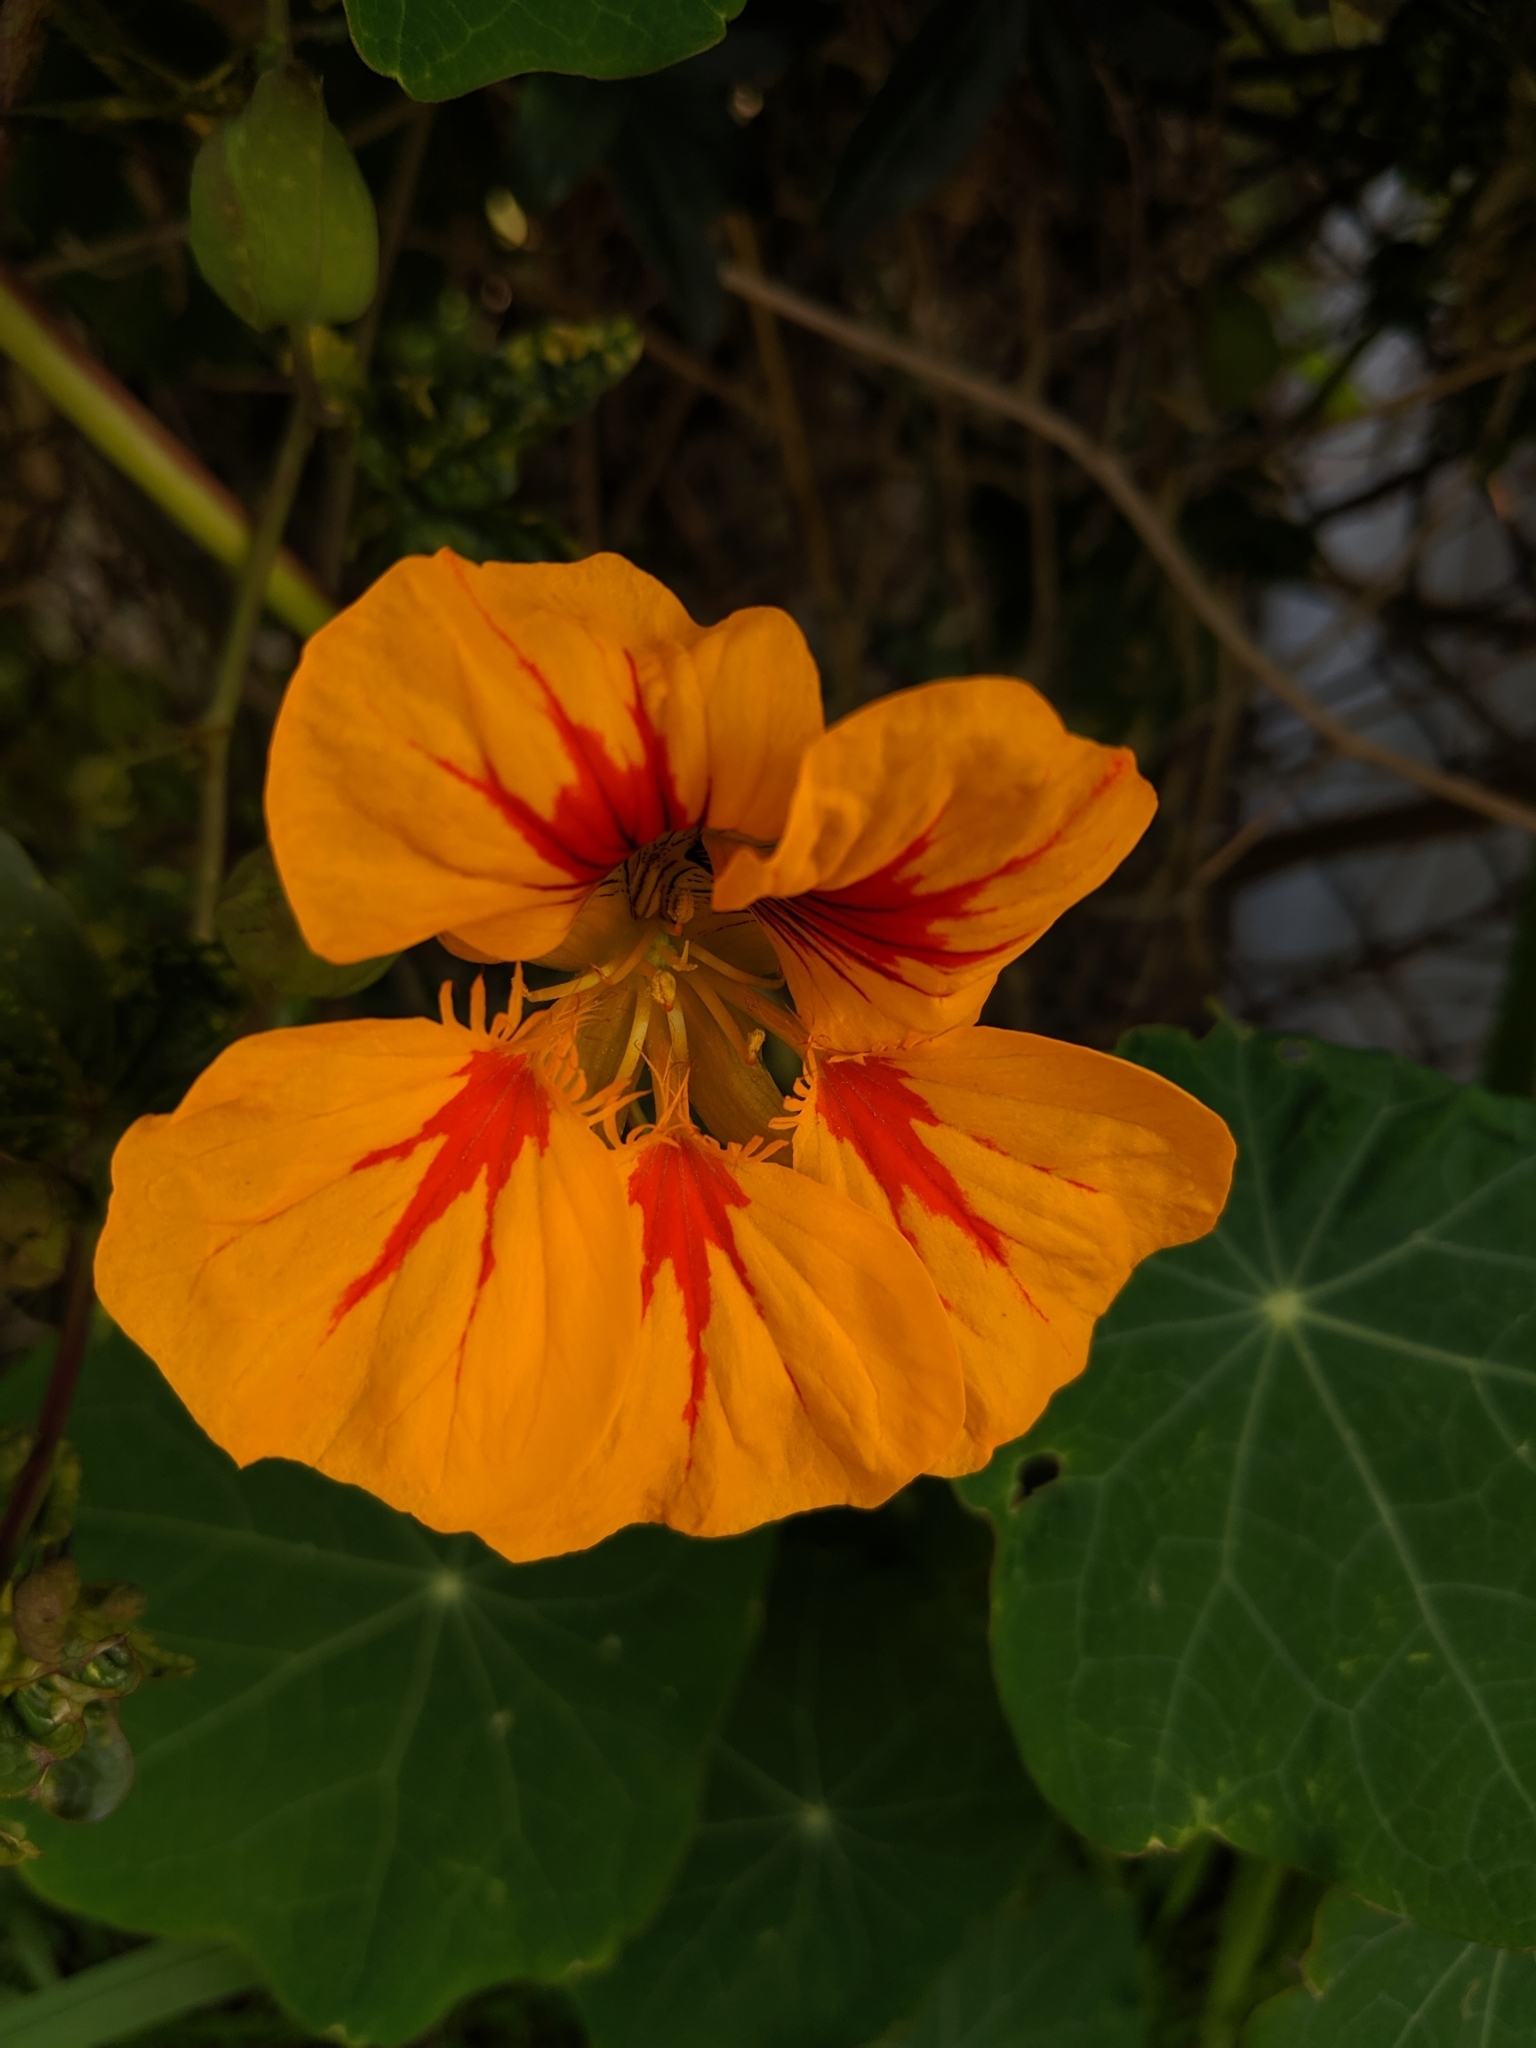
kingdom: Plantae
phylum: Tracheophyta
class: Magnoliopsida
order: Brassicales
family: Tropaeolaceae
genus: Tropaeolum
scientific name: Tropaeolum majus
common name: Nasturtium
